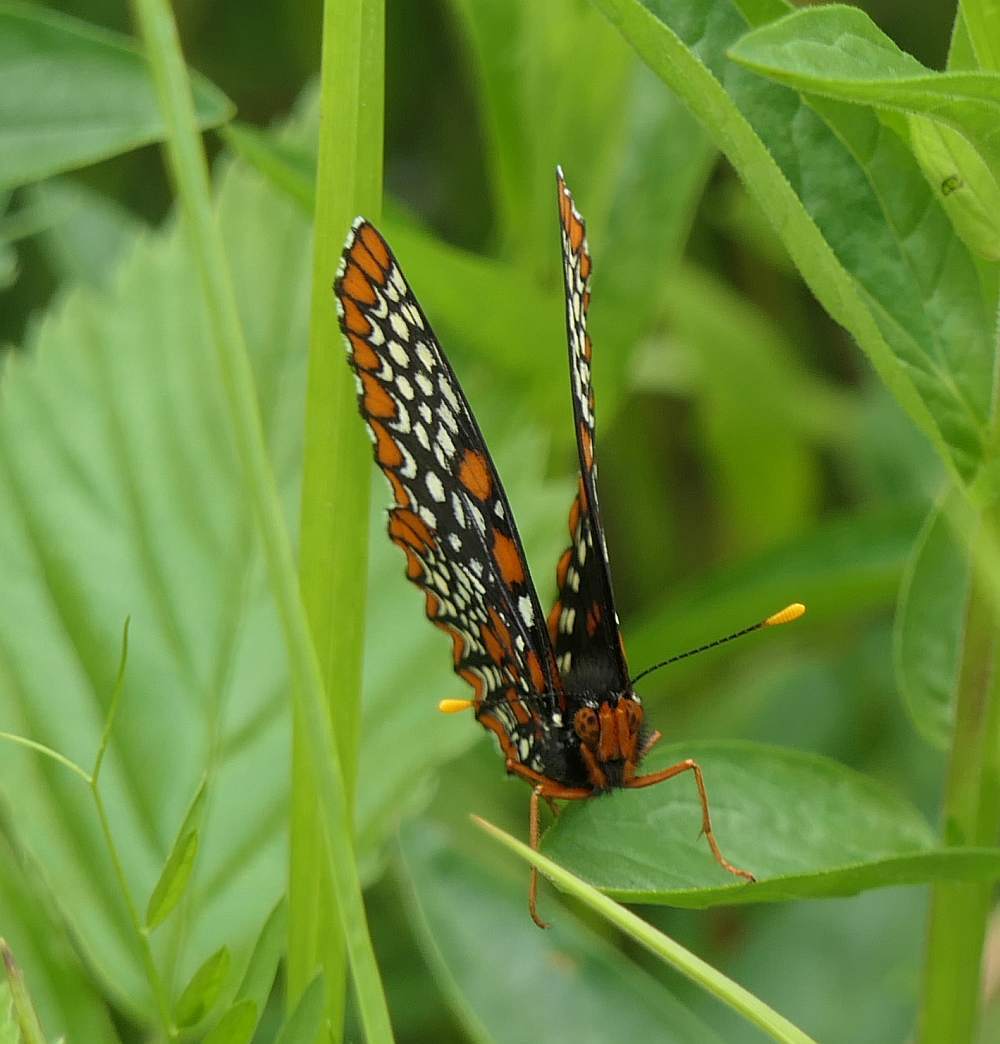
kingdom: Animalia
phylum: Arthropoda
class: Insecta
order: Lepidoptera
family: Nymphalidae
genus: Euphydryas
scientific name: Euphydryas phaeton
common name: Baltimore checkerspot
